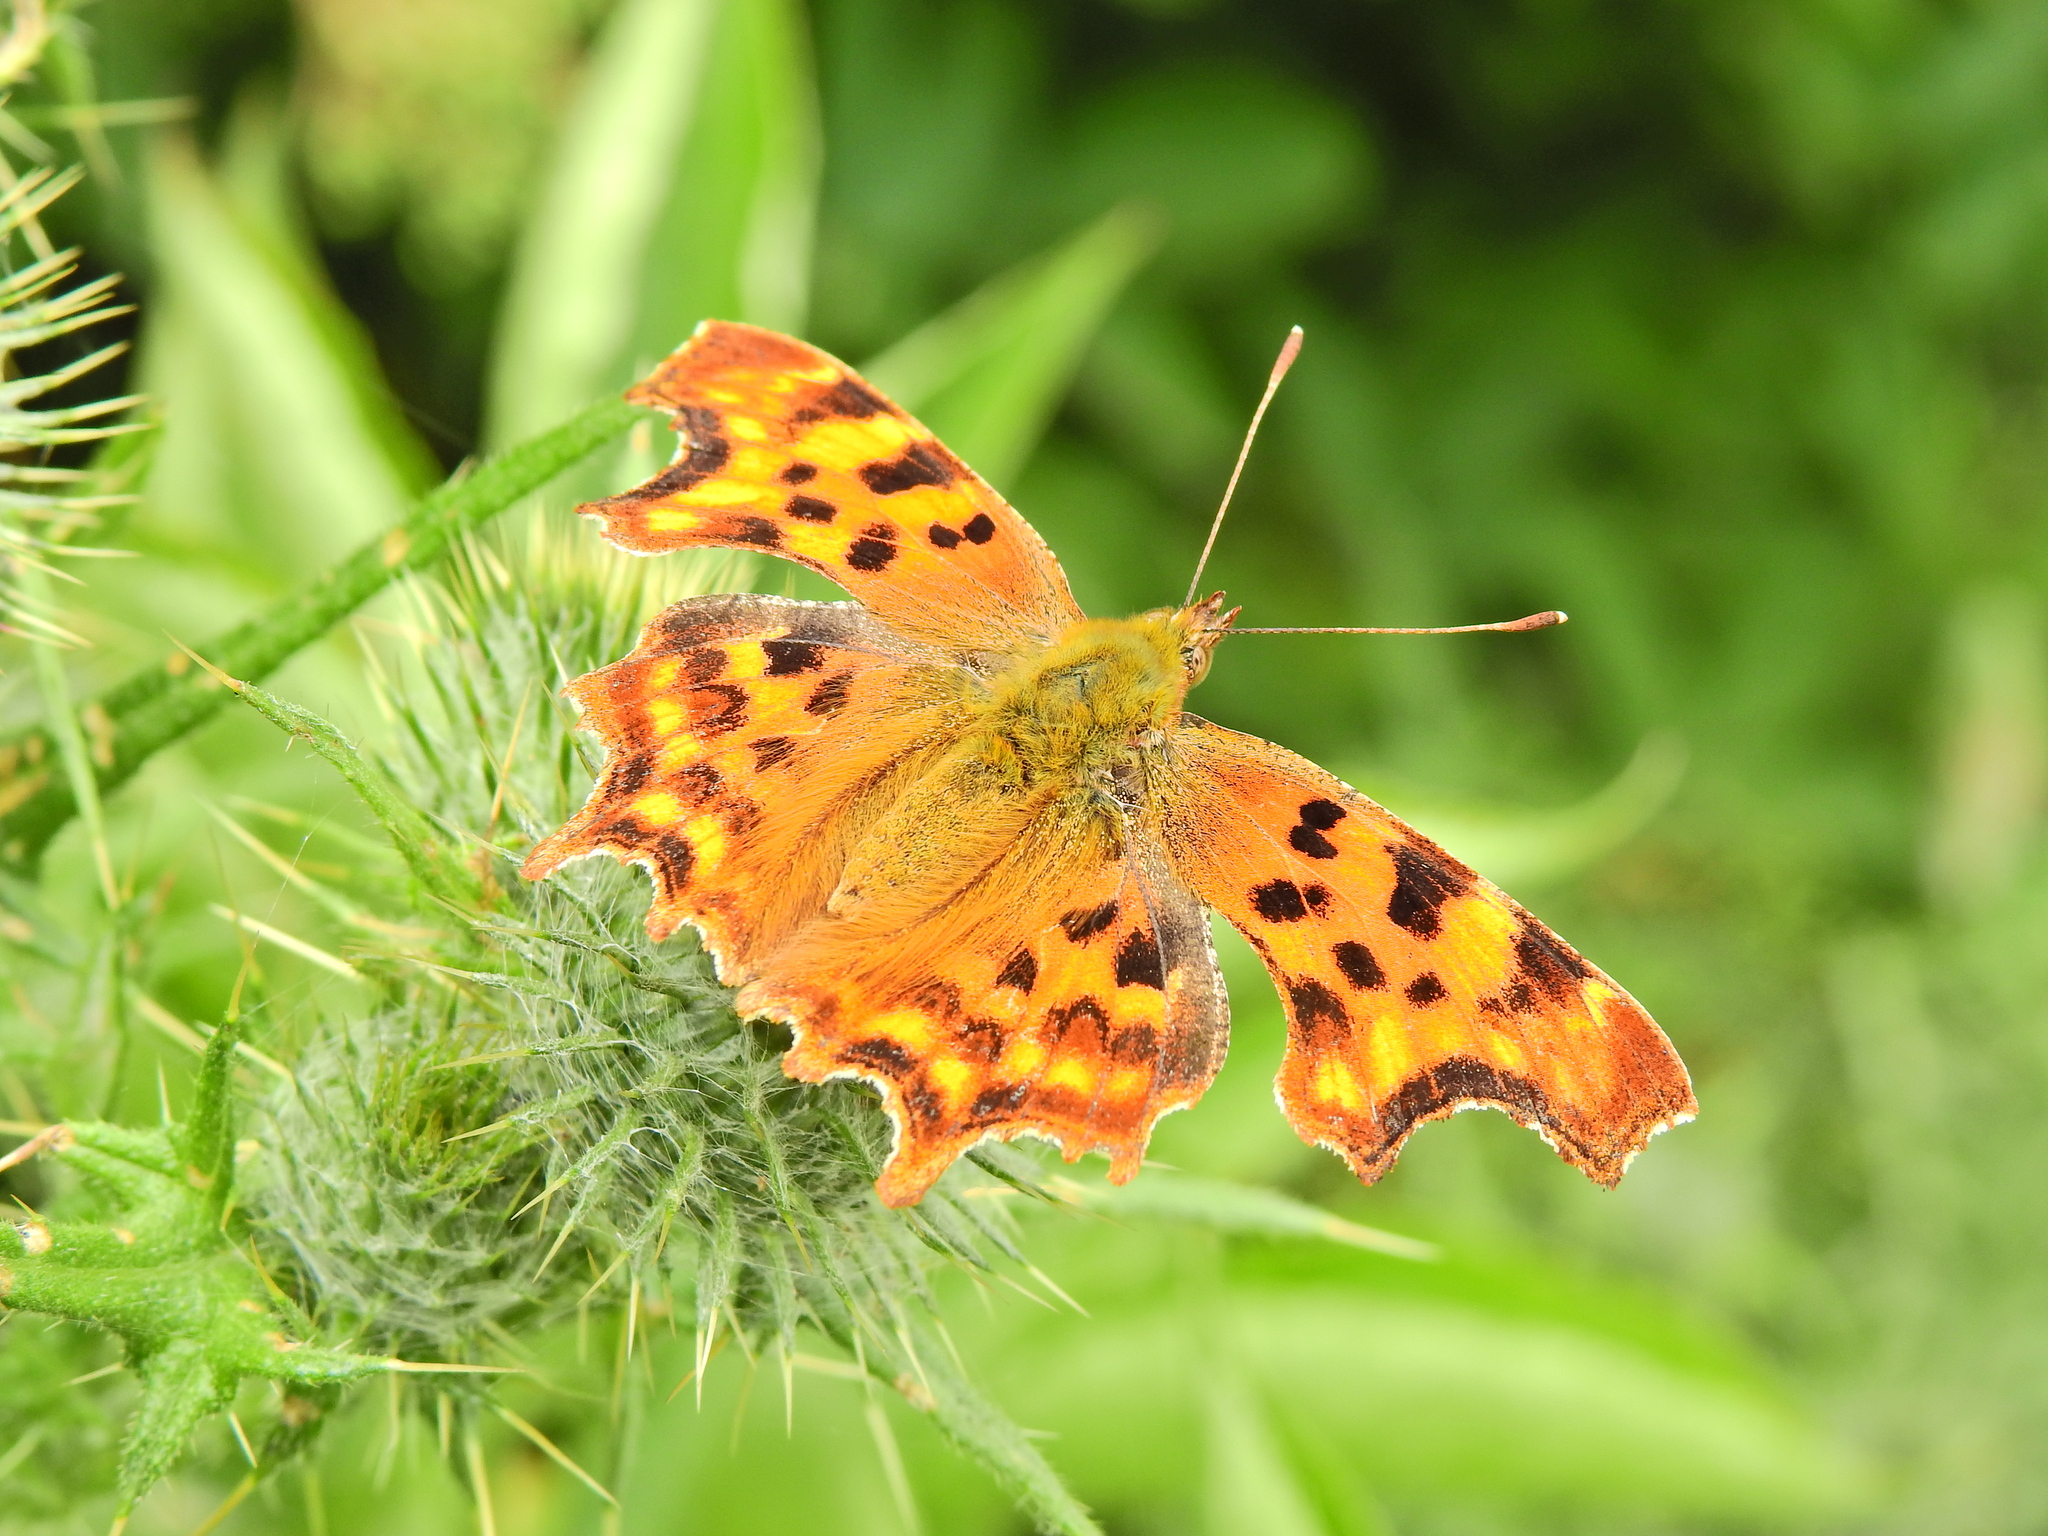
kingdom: Animalia
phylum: Arthropoda
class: Insecta
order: Lepidoptera
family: Nymphalidae
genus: Polygonia
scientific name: Polygonia c-album
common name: Comma
